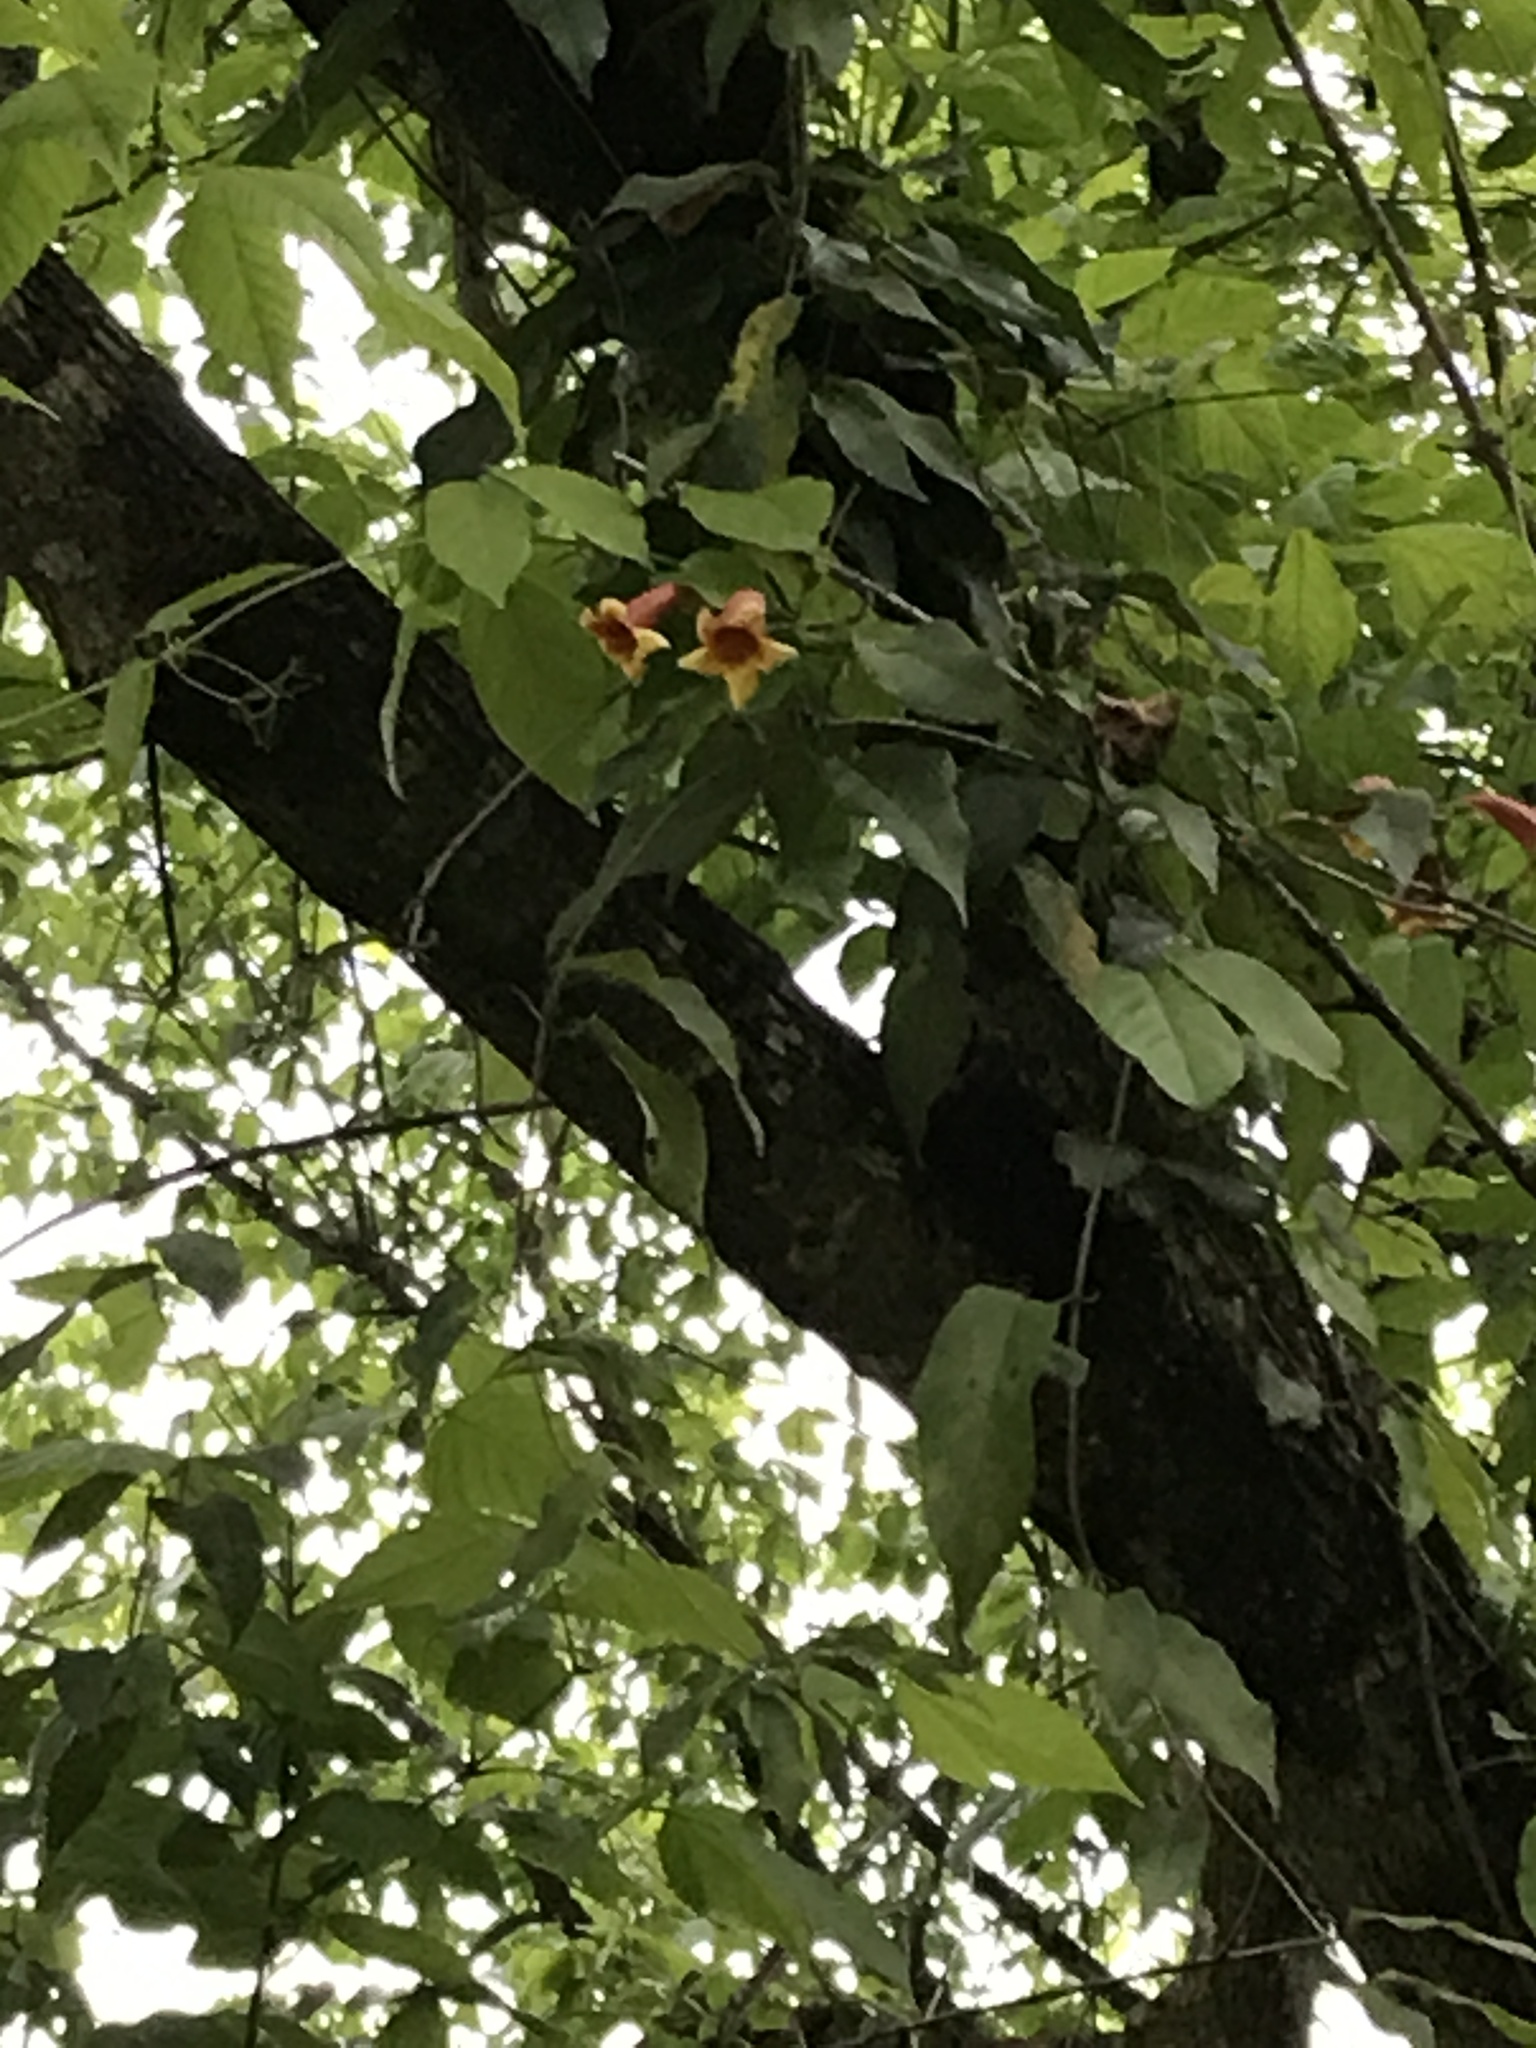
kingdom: Plantae
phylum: Tracheophyta
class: Magnoliopsida
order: Lamiales
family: Bignoniaceae
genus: Bignonia
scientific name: Bignonia capreolata
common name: Crossvine
